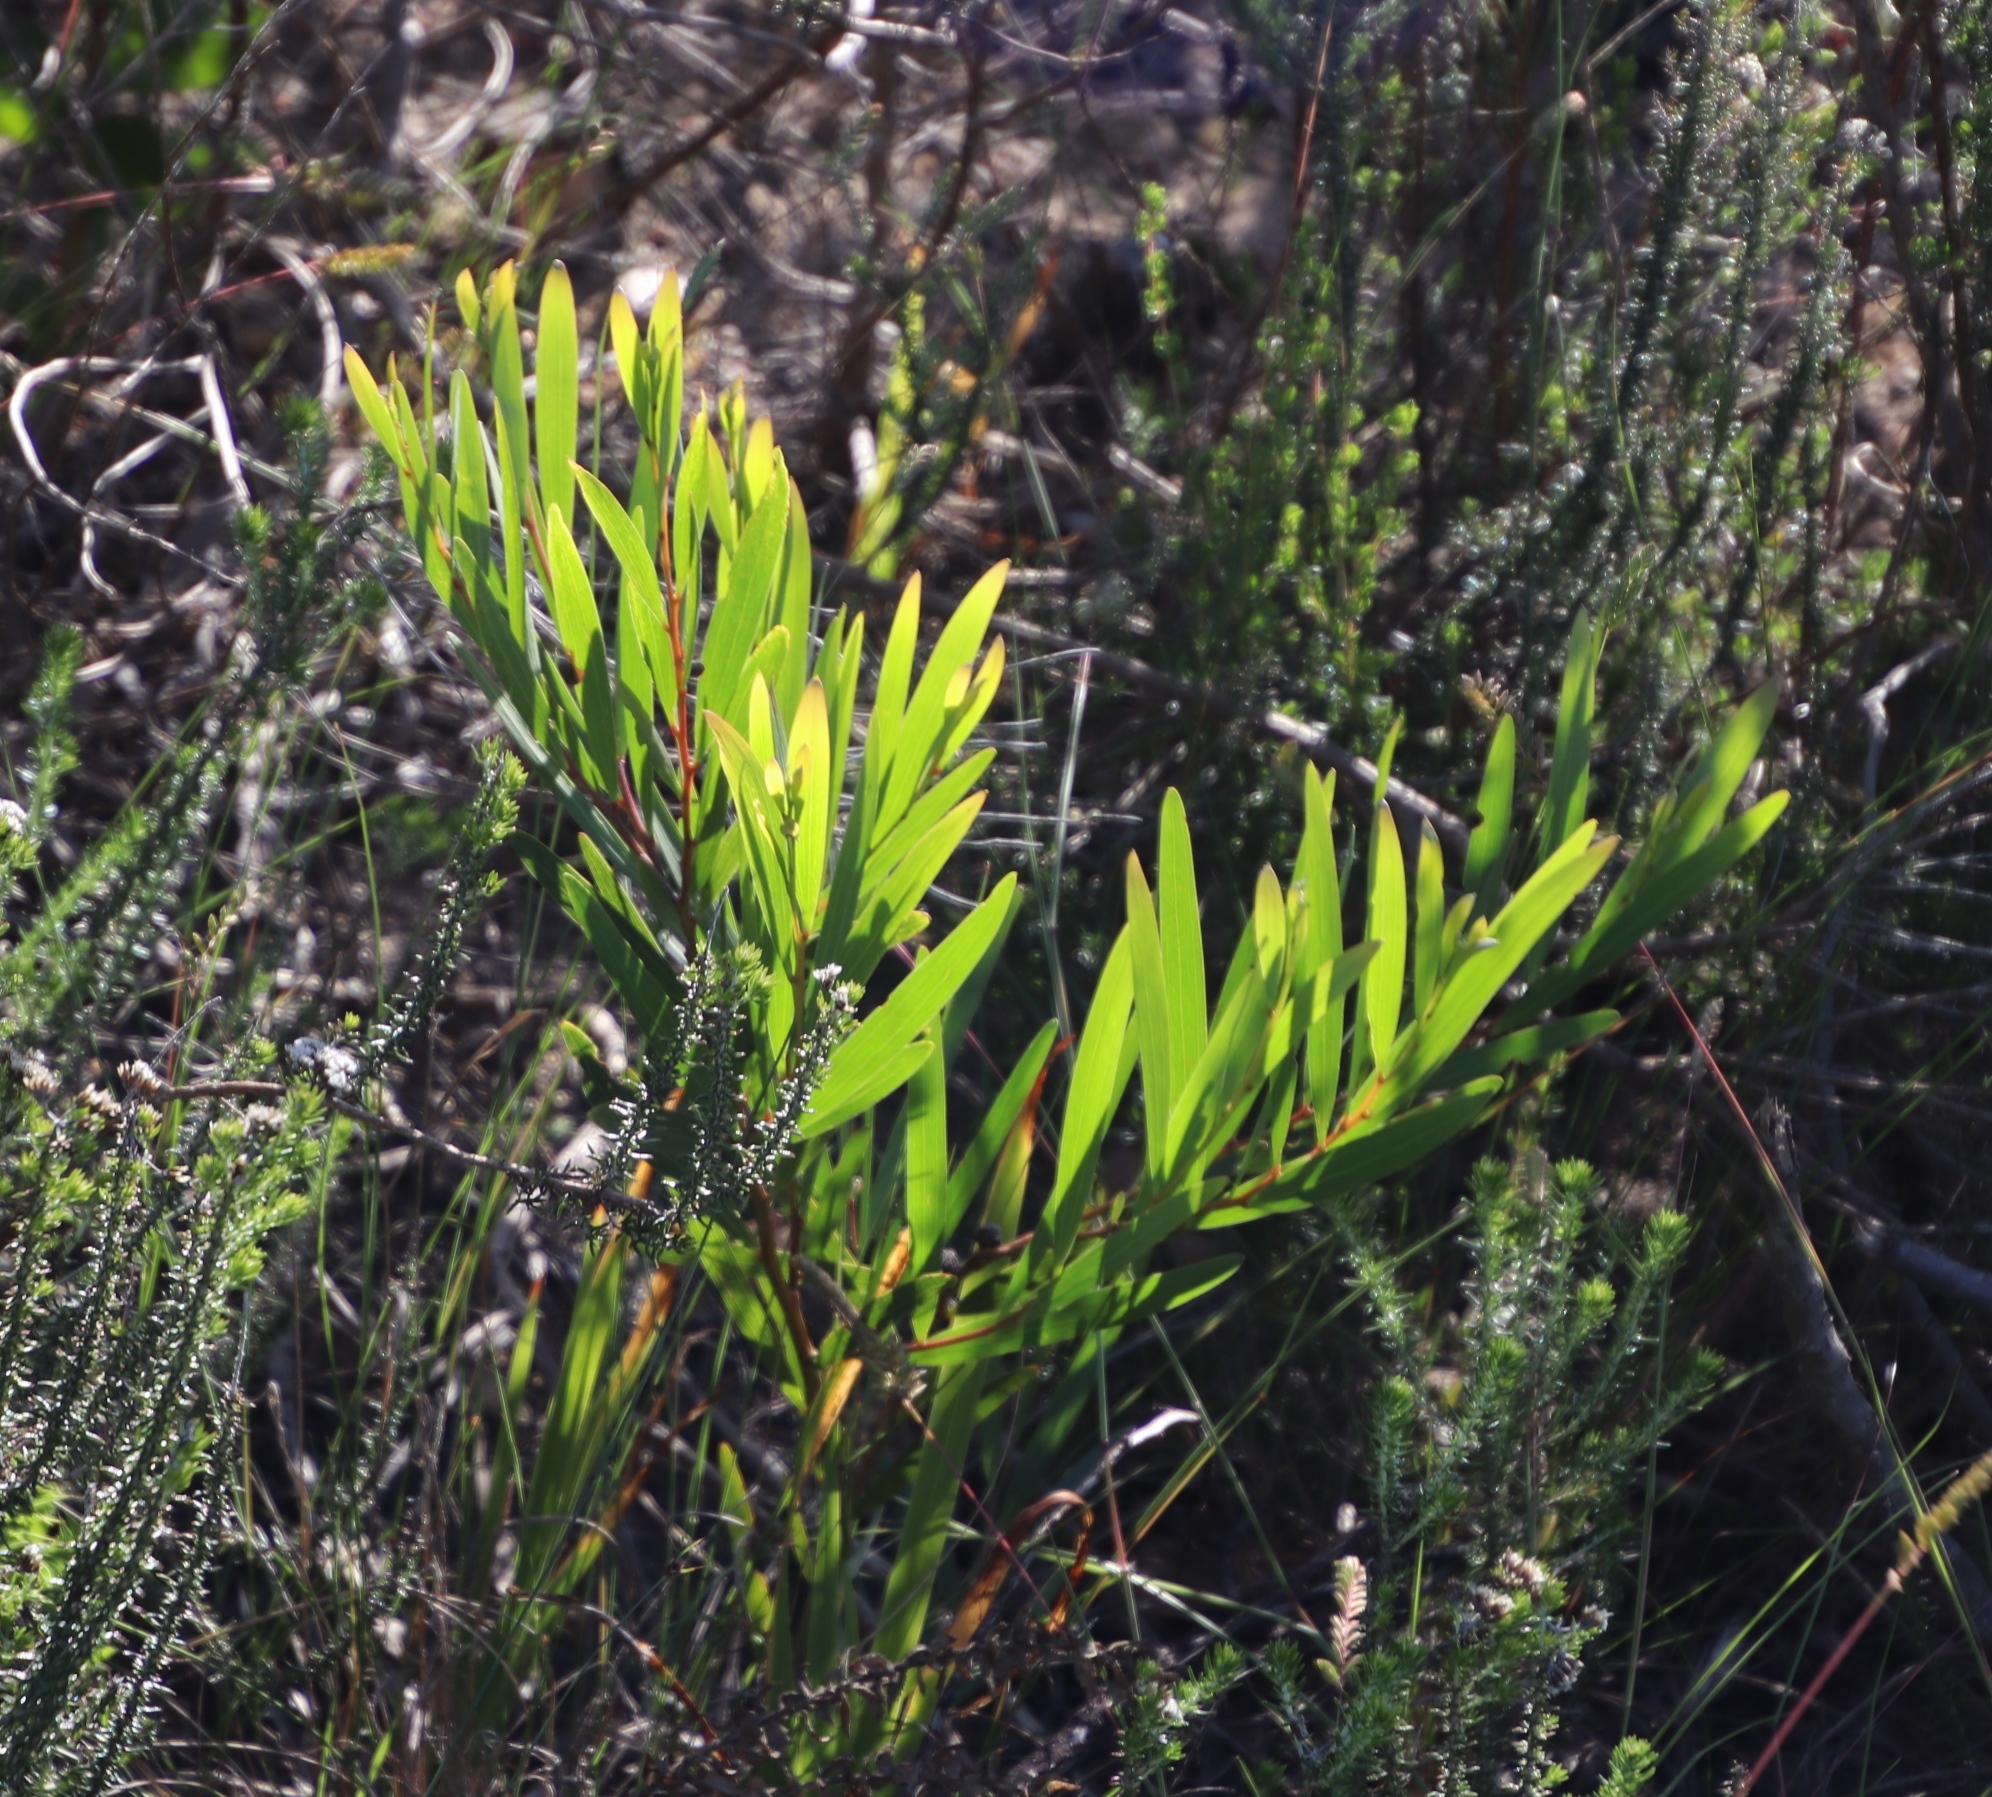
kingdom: Plantae
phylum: Tracheophyta
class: Magnoliopsida
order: Fabales
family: Fabaceae
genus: Acacia
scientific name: Acacia longifolia
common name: Sydney golden wattle
